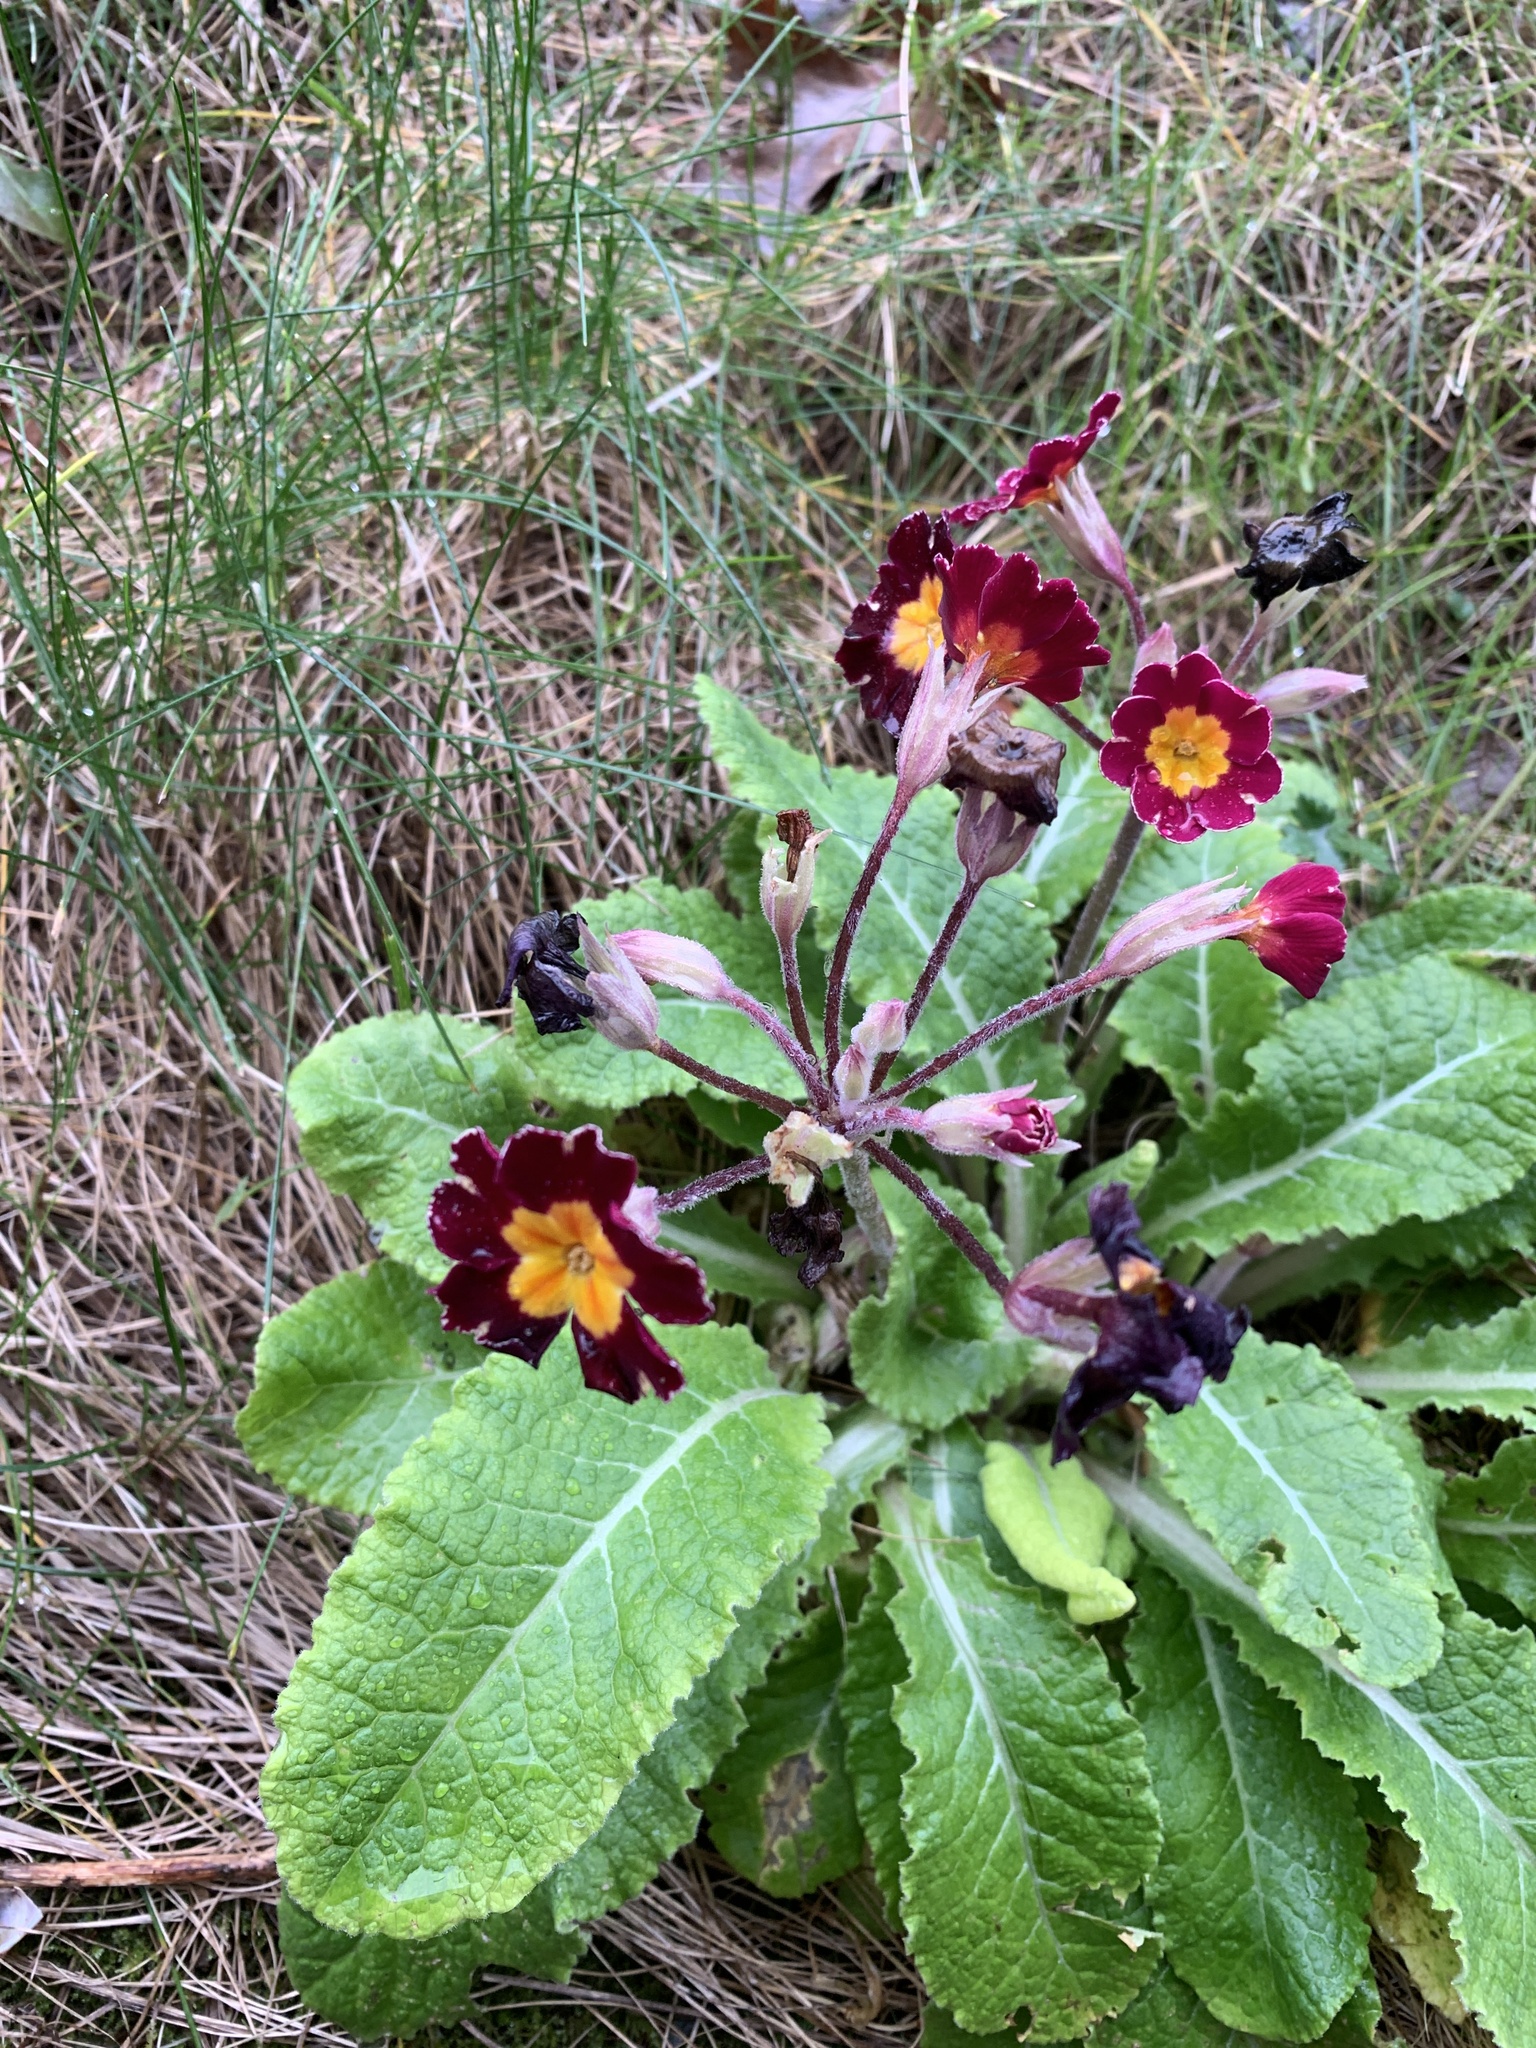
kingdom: Plantae
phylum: Tracheophyta
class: Magnoliopsida
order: Ericales
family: Primulaceae
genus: Primula
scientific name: Primula vulgaris
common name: Primrose
